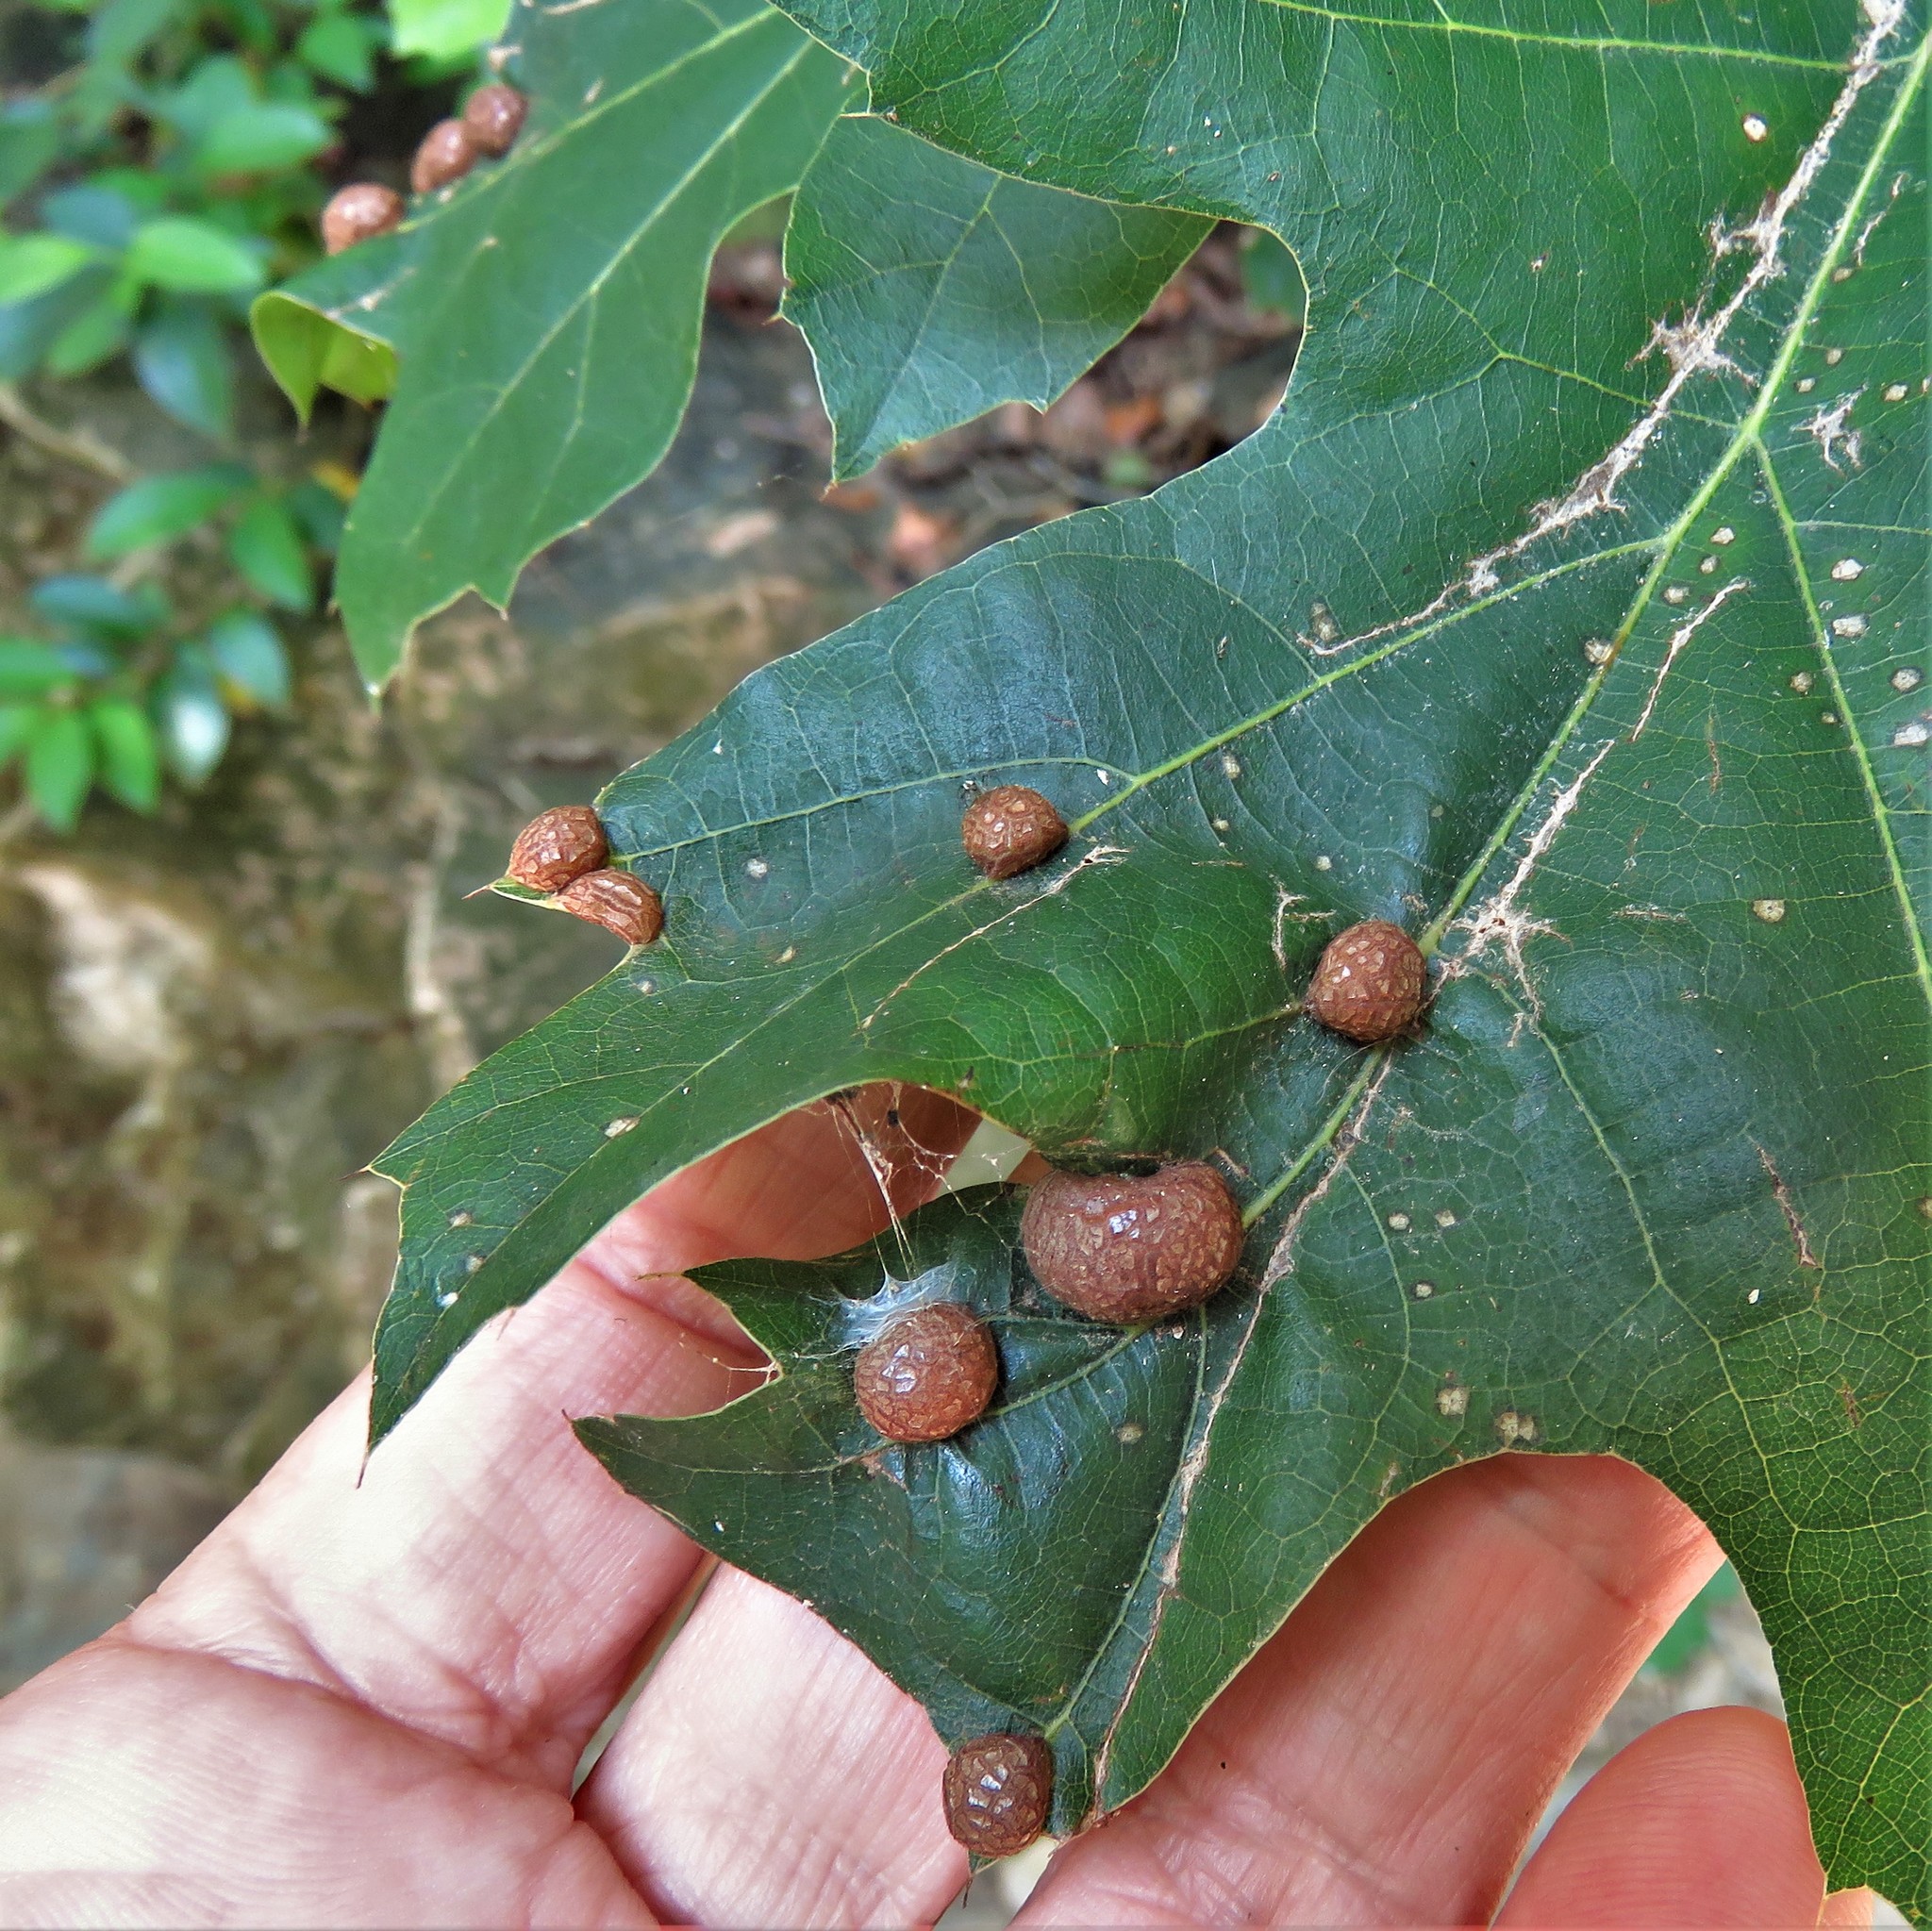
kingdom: Animalia
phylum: Arthropoda
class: Insecta
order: Diptera
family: Cecidomyiidae
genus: Polystepha
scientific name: Polystepha pilulae
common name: Oak leaf gall midge
